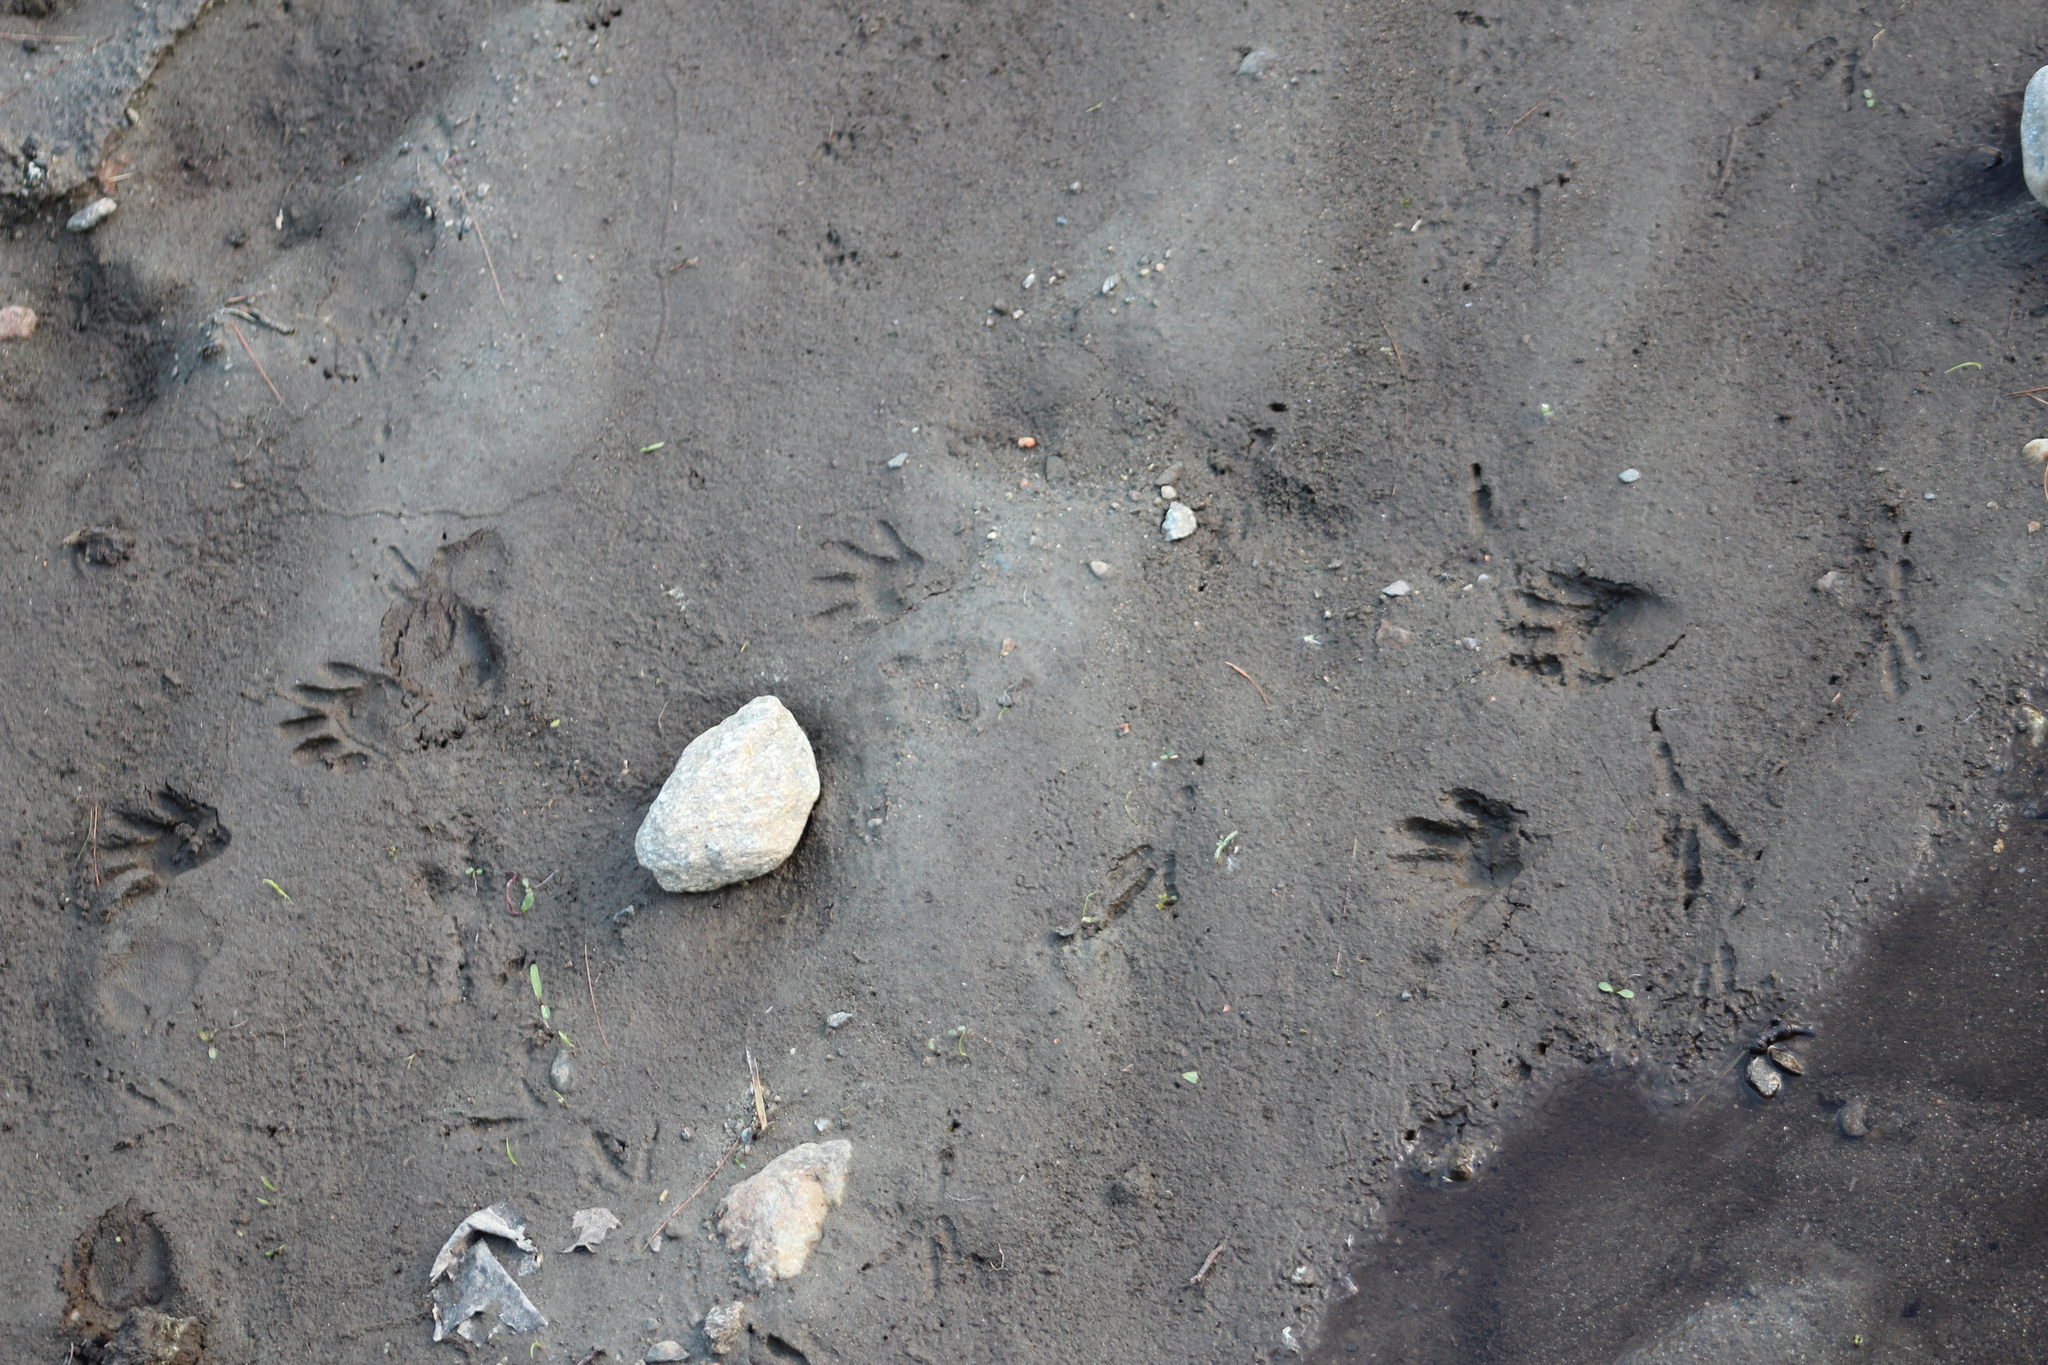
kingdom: Animalia
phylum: Chordata
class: Mammalia
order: Carnivora
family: Procyonidae
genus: Procyon
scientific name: Procyon lotor
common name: Raccoon
